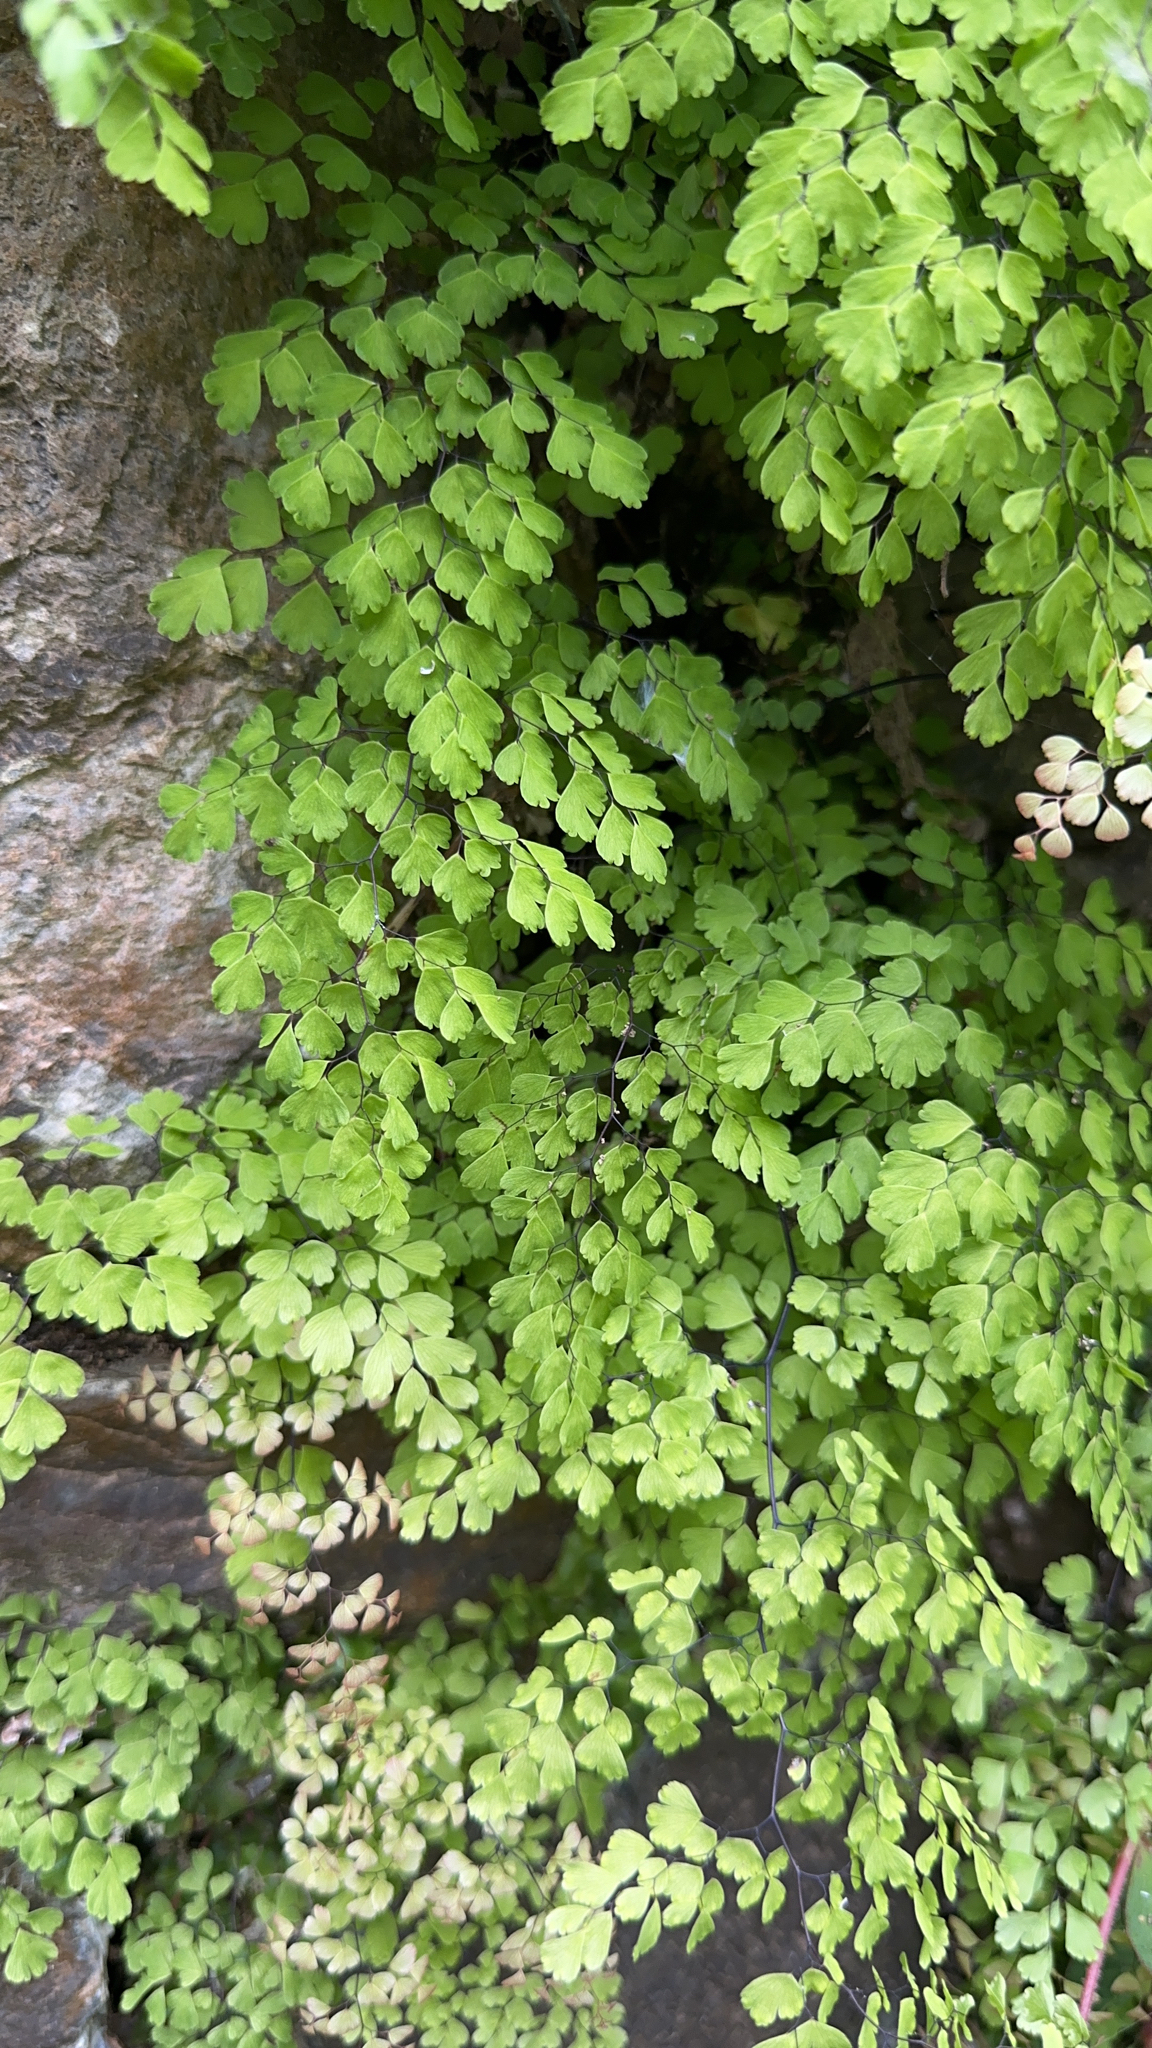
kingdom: Plantae
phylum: Tracheophyta
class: Polypodiopsida
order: Polypodiales
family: Pteridaceae
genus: Adiantum
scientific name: Adiantum capillus-veneris
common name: Maidenhair fern
